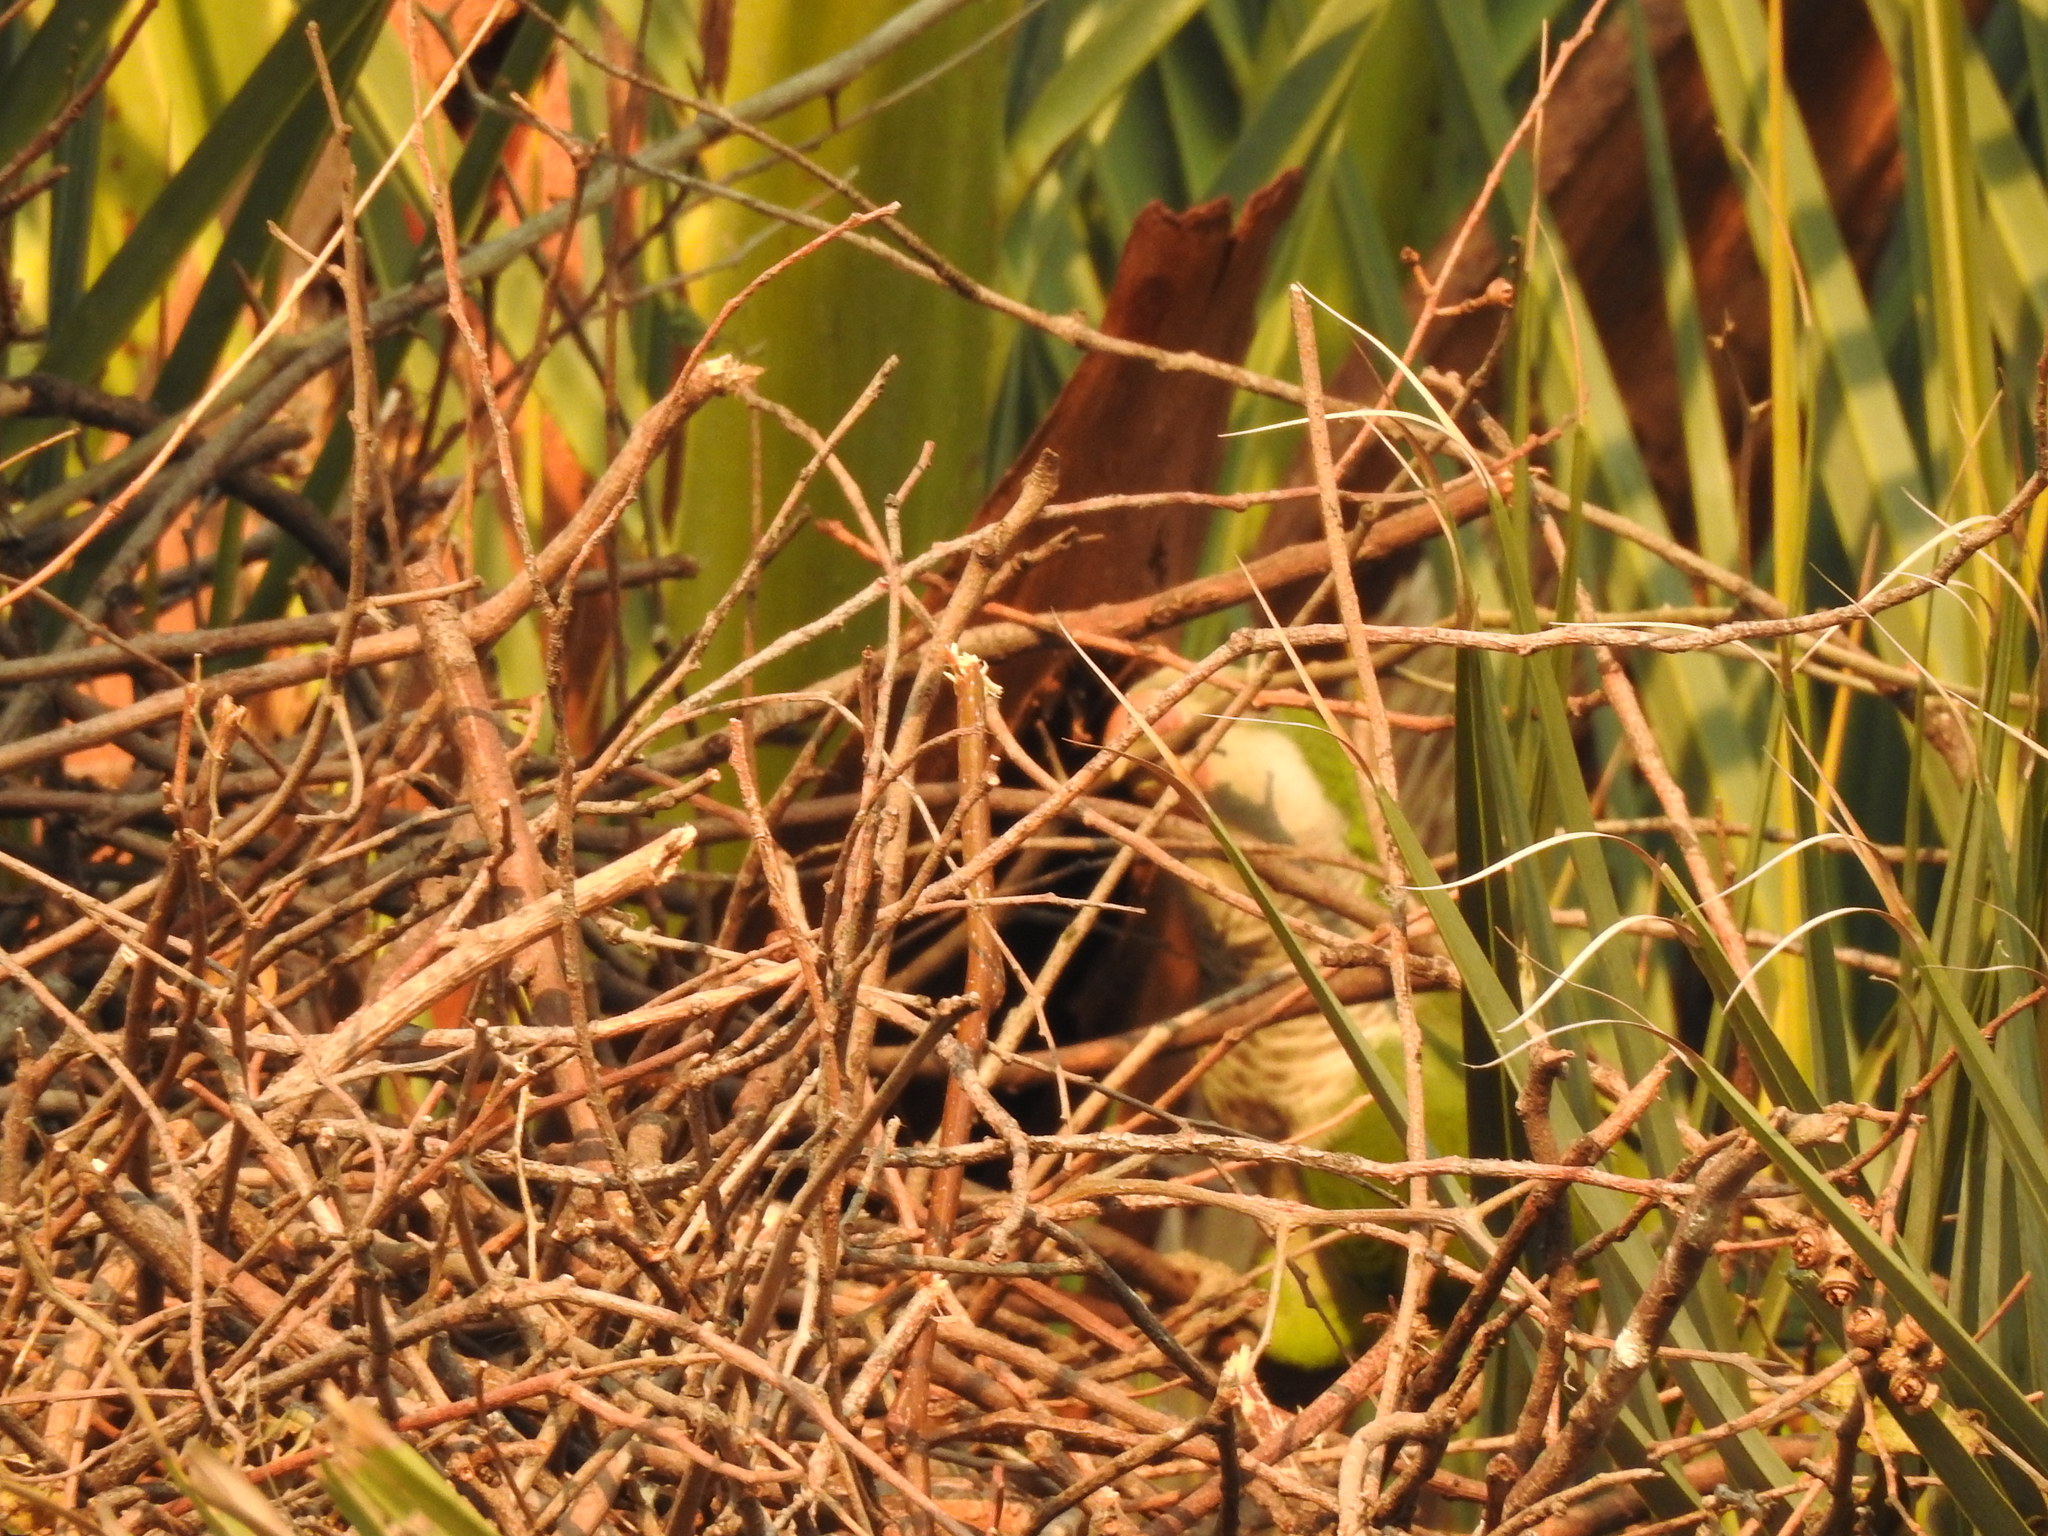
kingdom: Animalia
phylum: Chordata
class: Aves
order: Psittaciformes
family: Psittacidae
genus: Myiopsitta
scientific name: Myiopsitta monachus
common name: Monk parakeet
